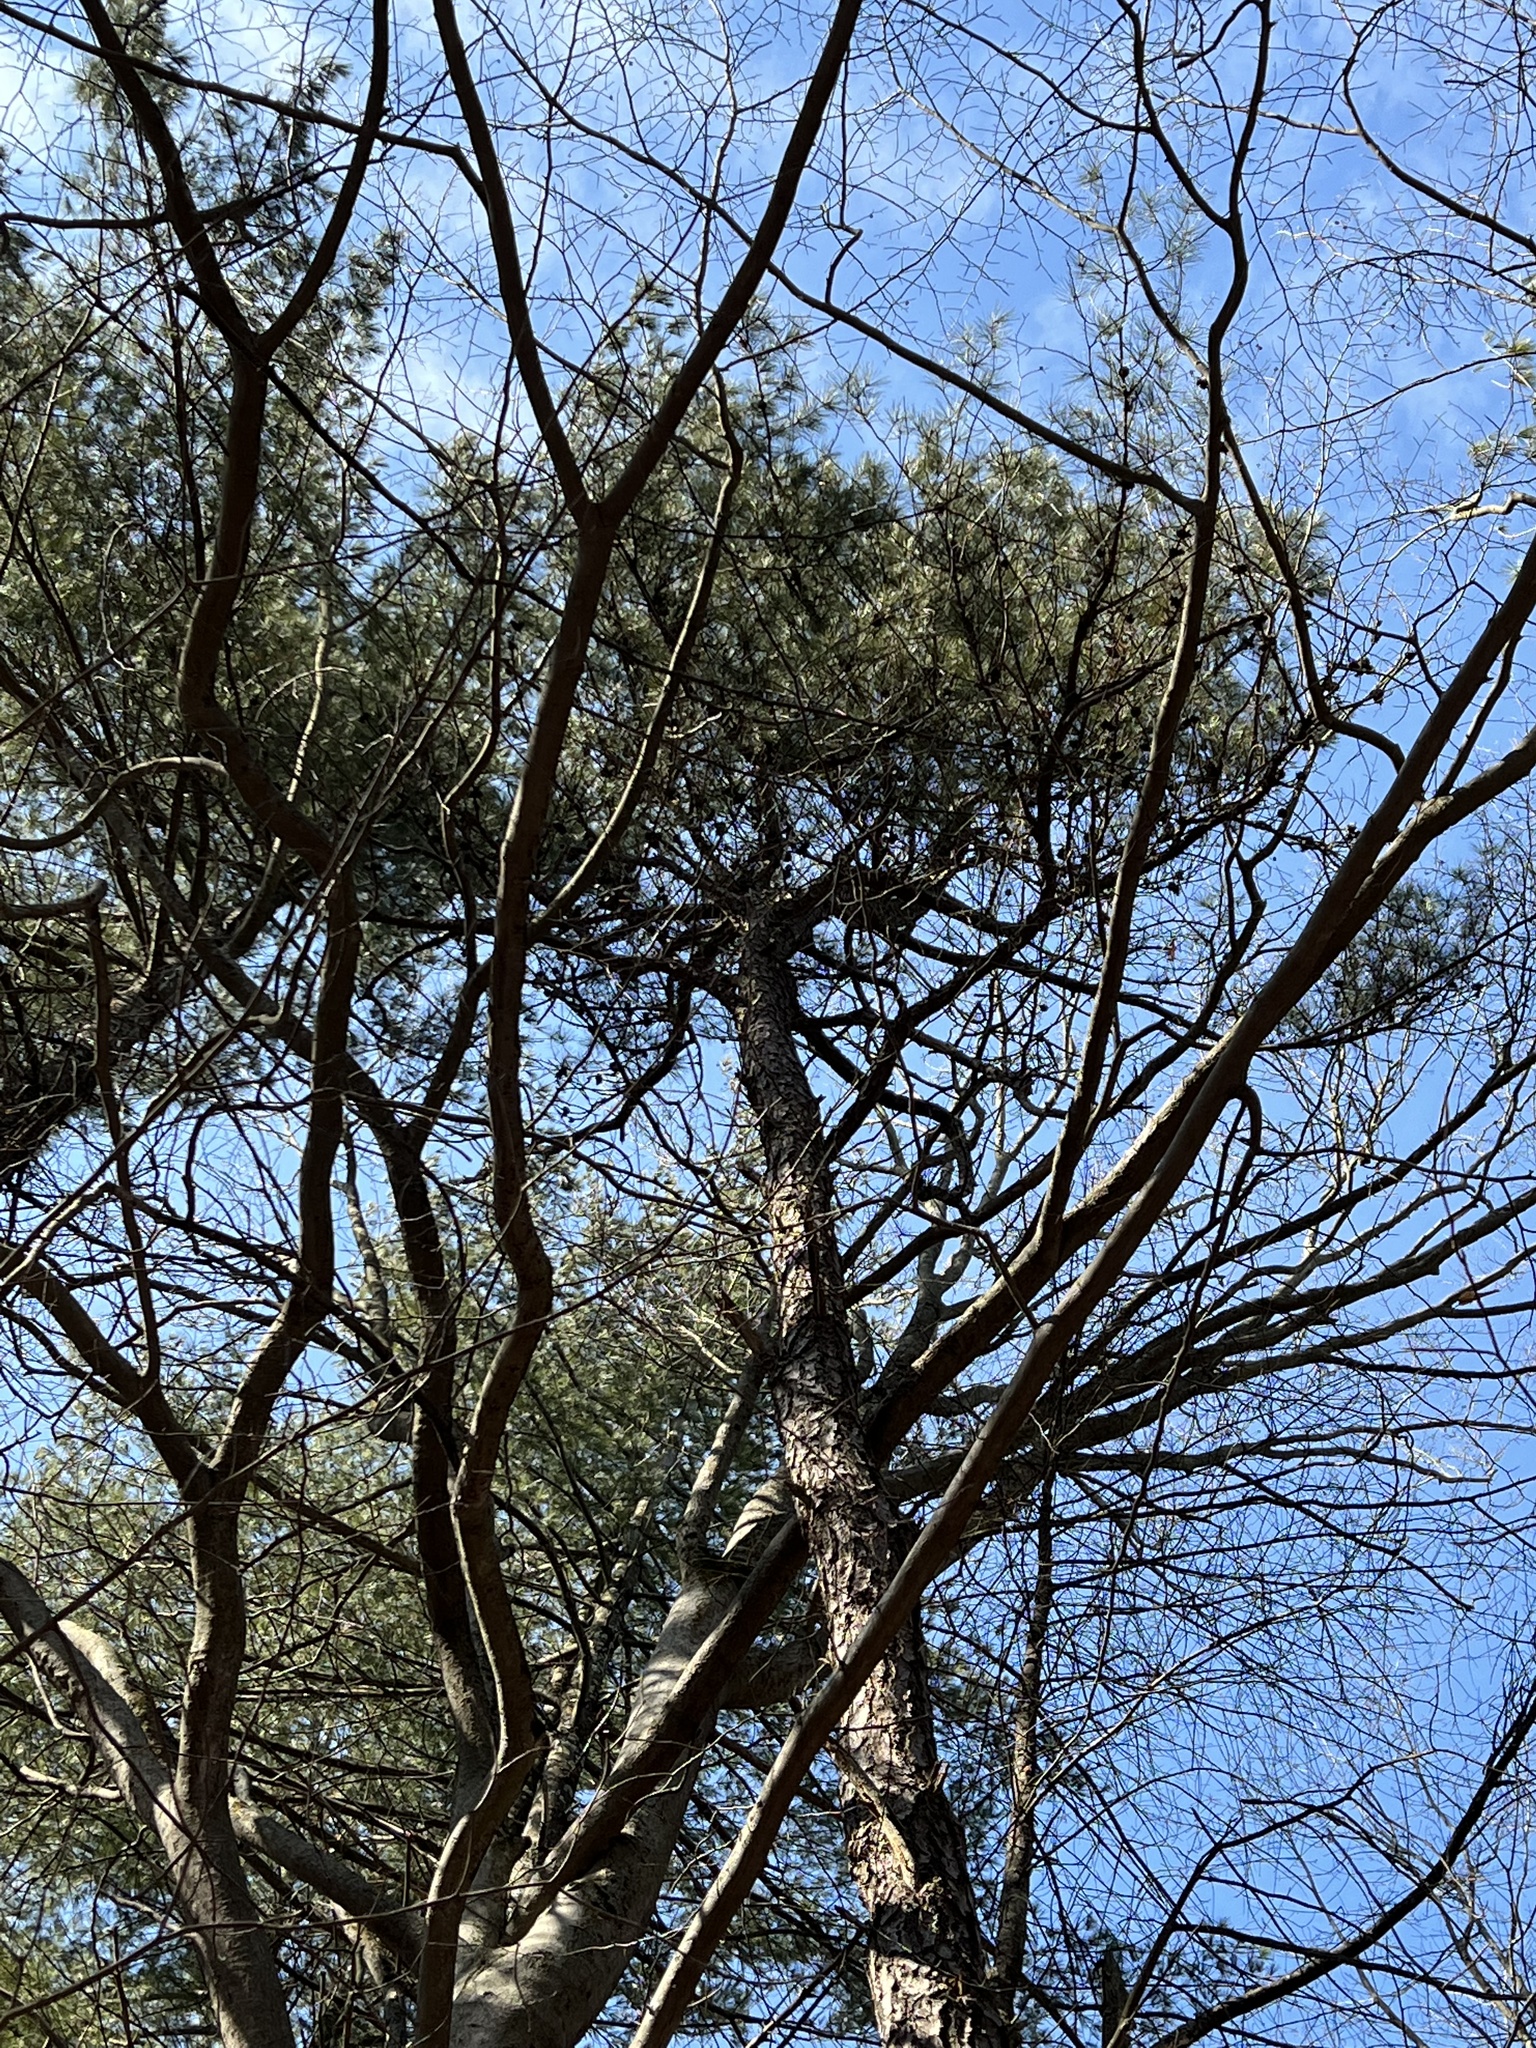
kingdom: Plantae
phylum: Tracheophyta
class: Pinopsida
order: Pinales
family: Pinaceae
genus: Pinus
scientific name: Pinus rigida
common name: Pitch pine
